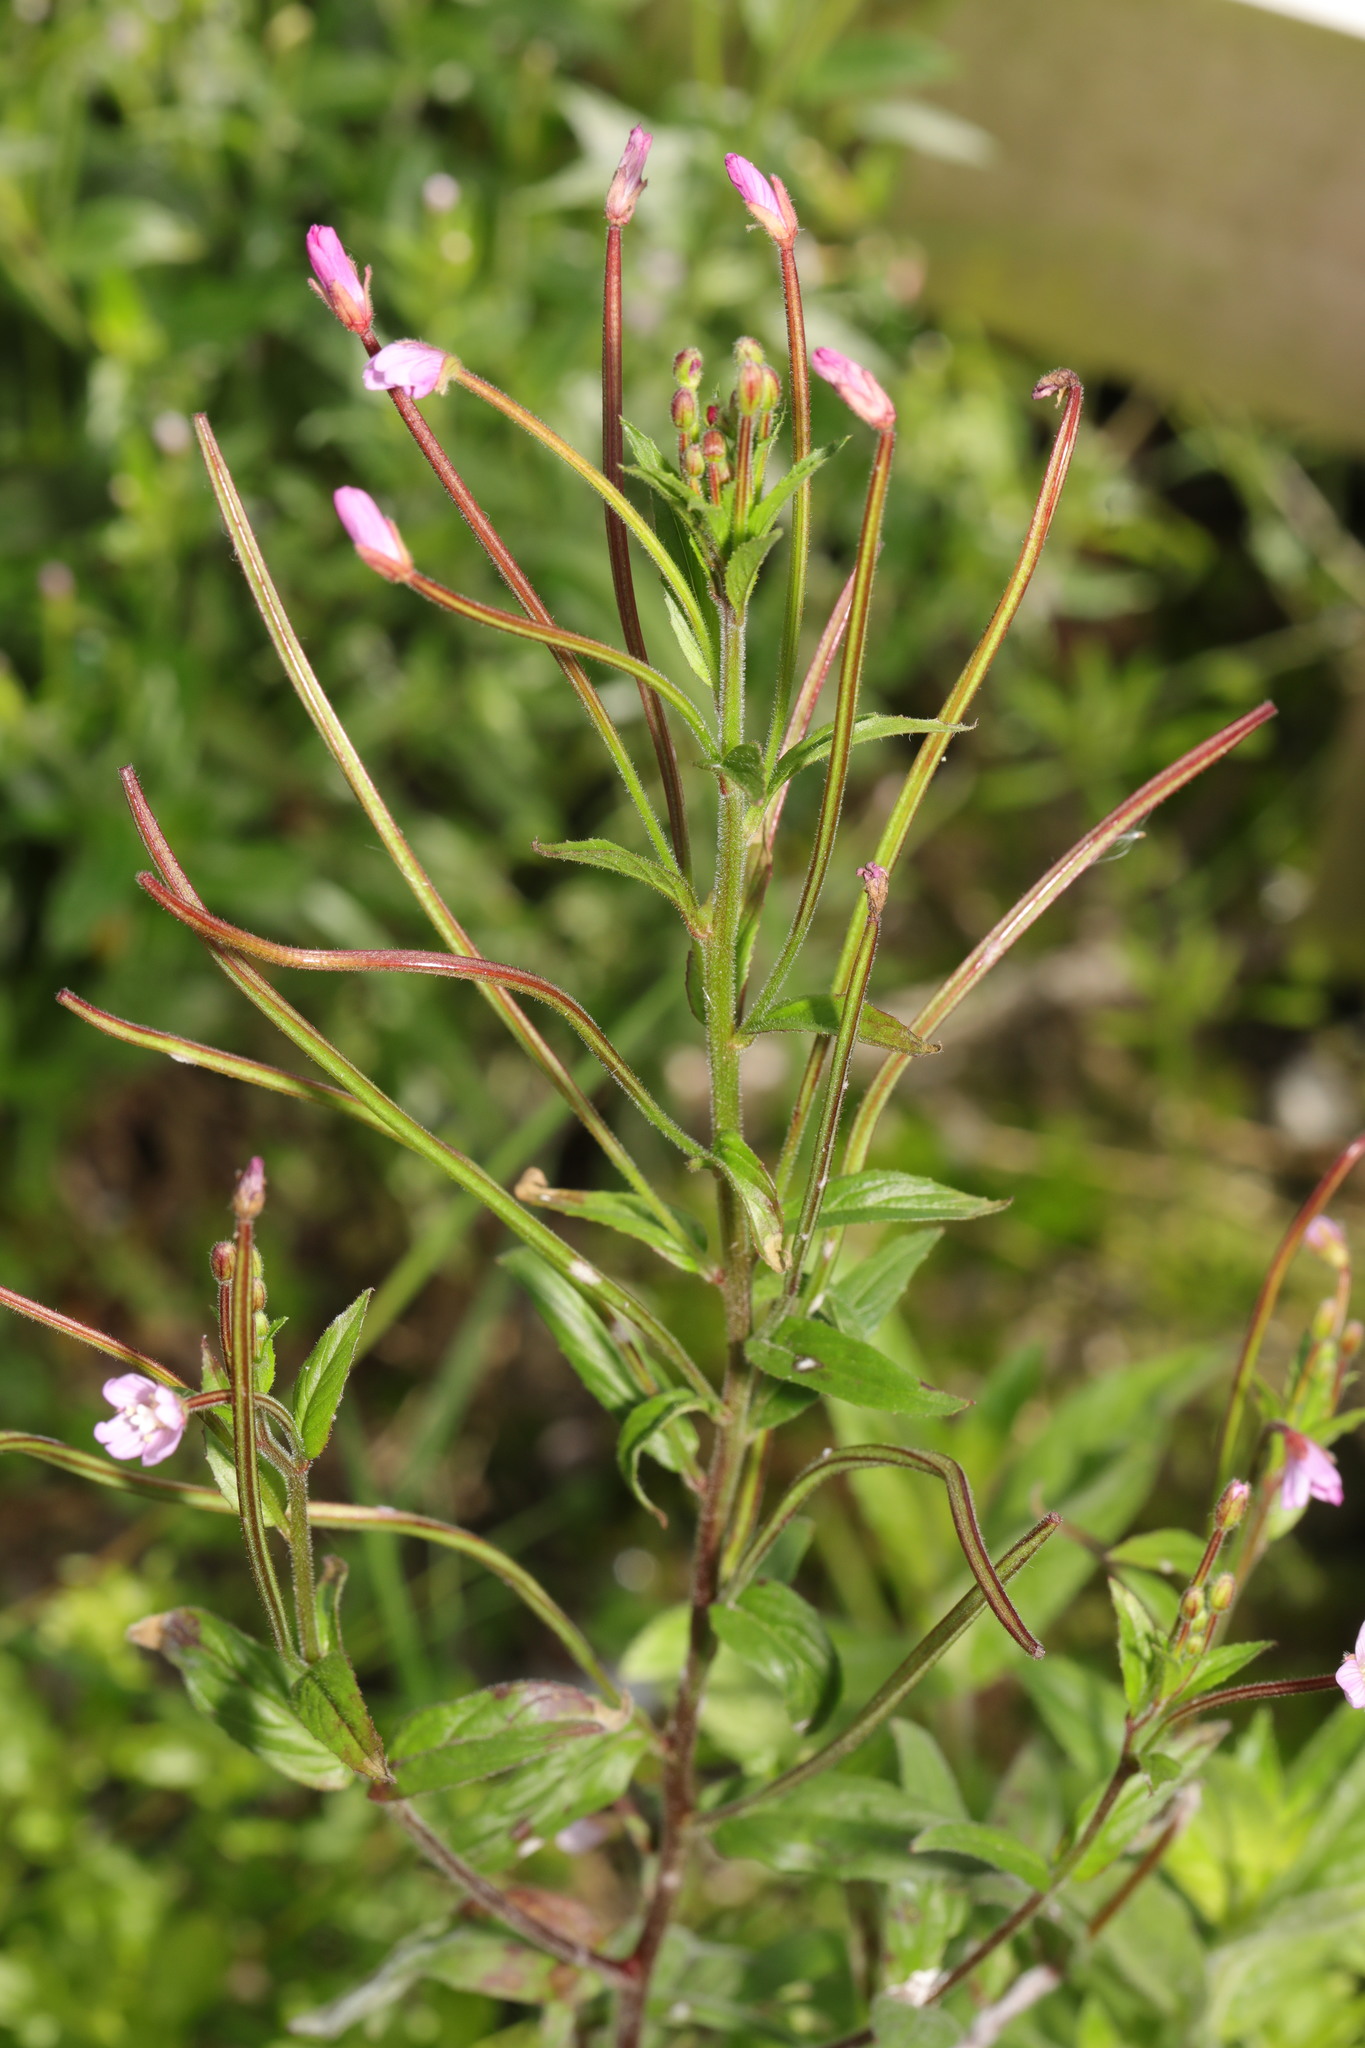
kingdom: Plantae
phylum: Tracheophyta
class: Magnoliopsida
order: Myrtales
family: Onagraceae
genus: Epilobium
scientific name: Epilobium ciliatum
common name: American willowherb
